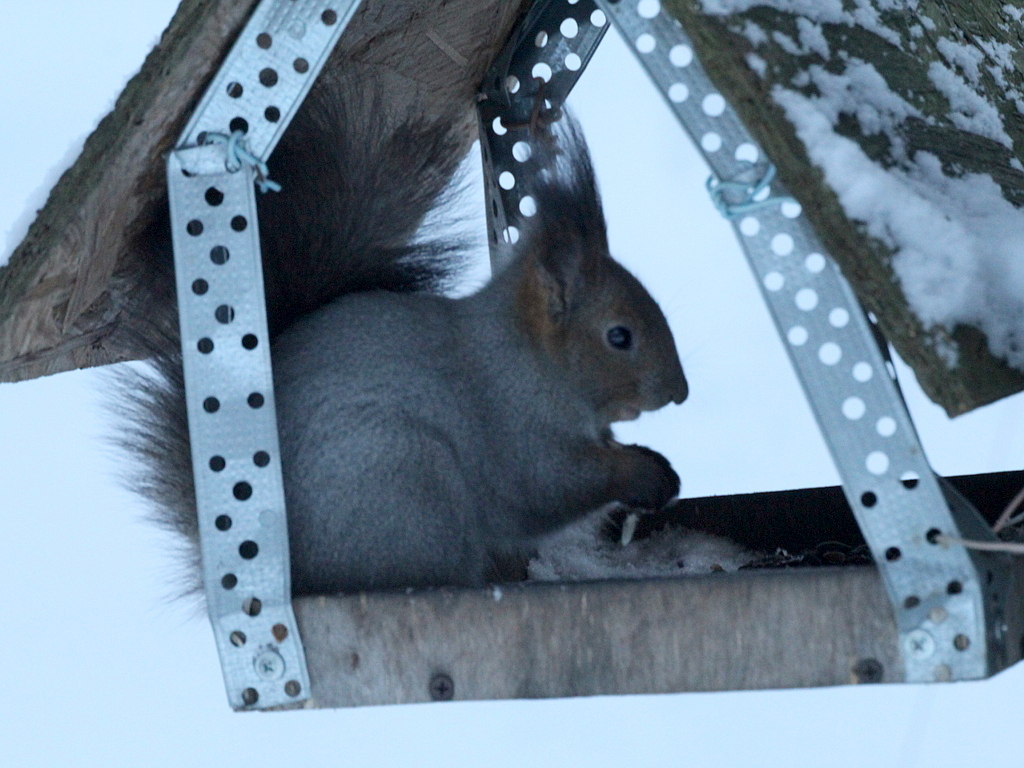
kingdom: Animalia
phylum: Chordata
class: Mammalia
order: Rodentia
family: Sciuridae
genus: Sciurus
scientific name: Sciurus vulgaris
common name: Eurasian red squirrel
